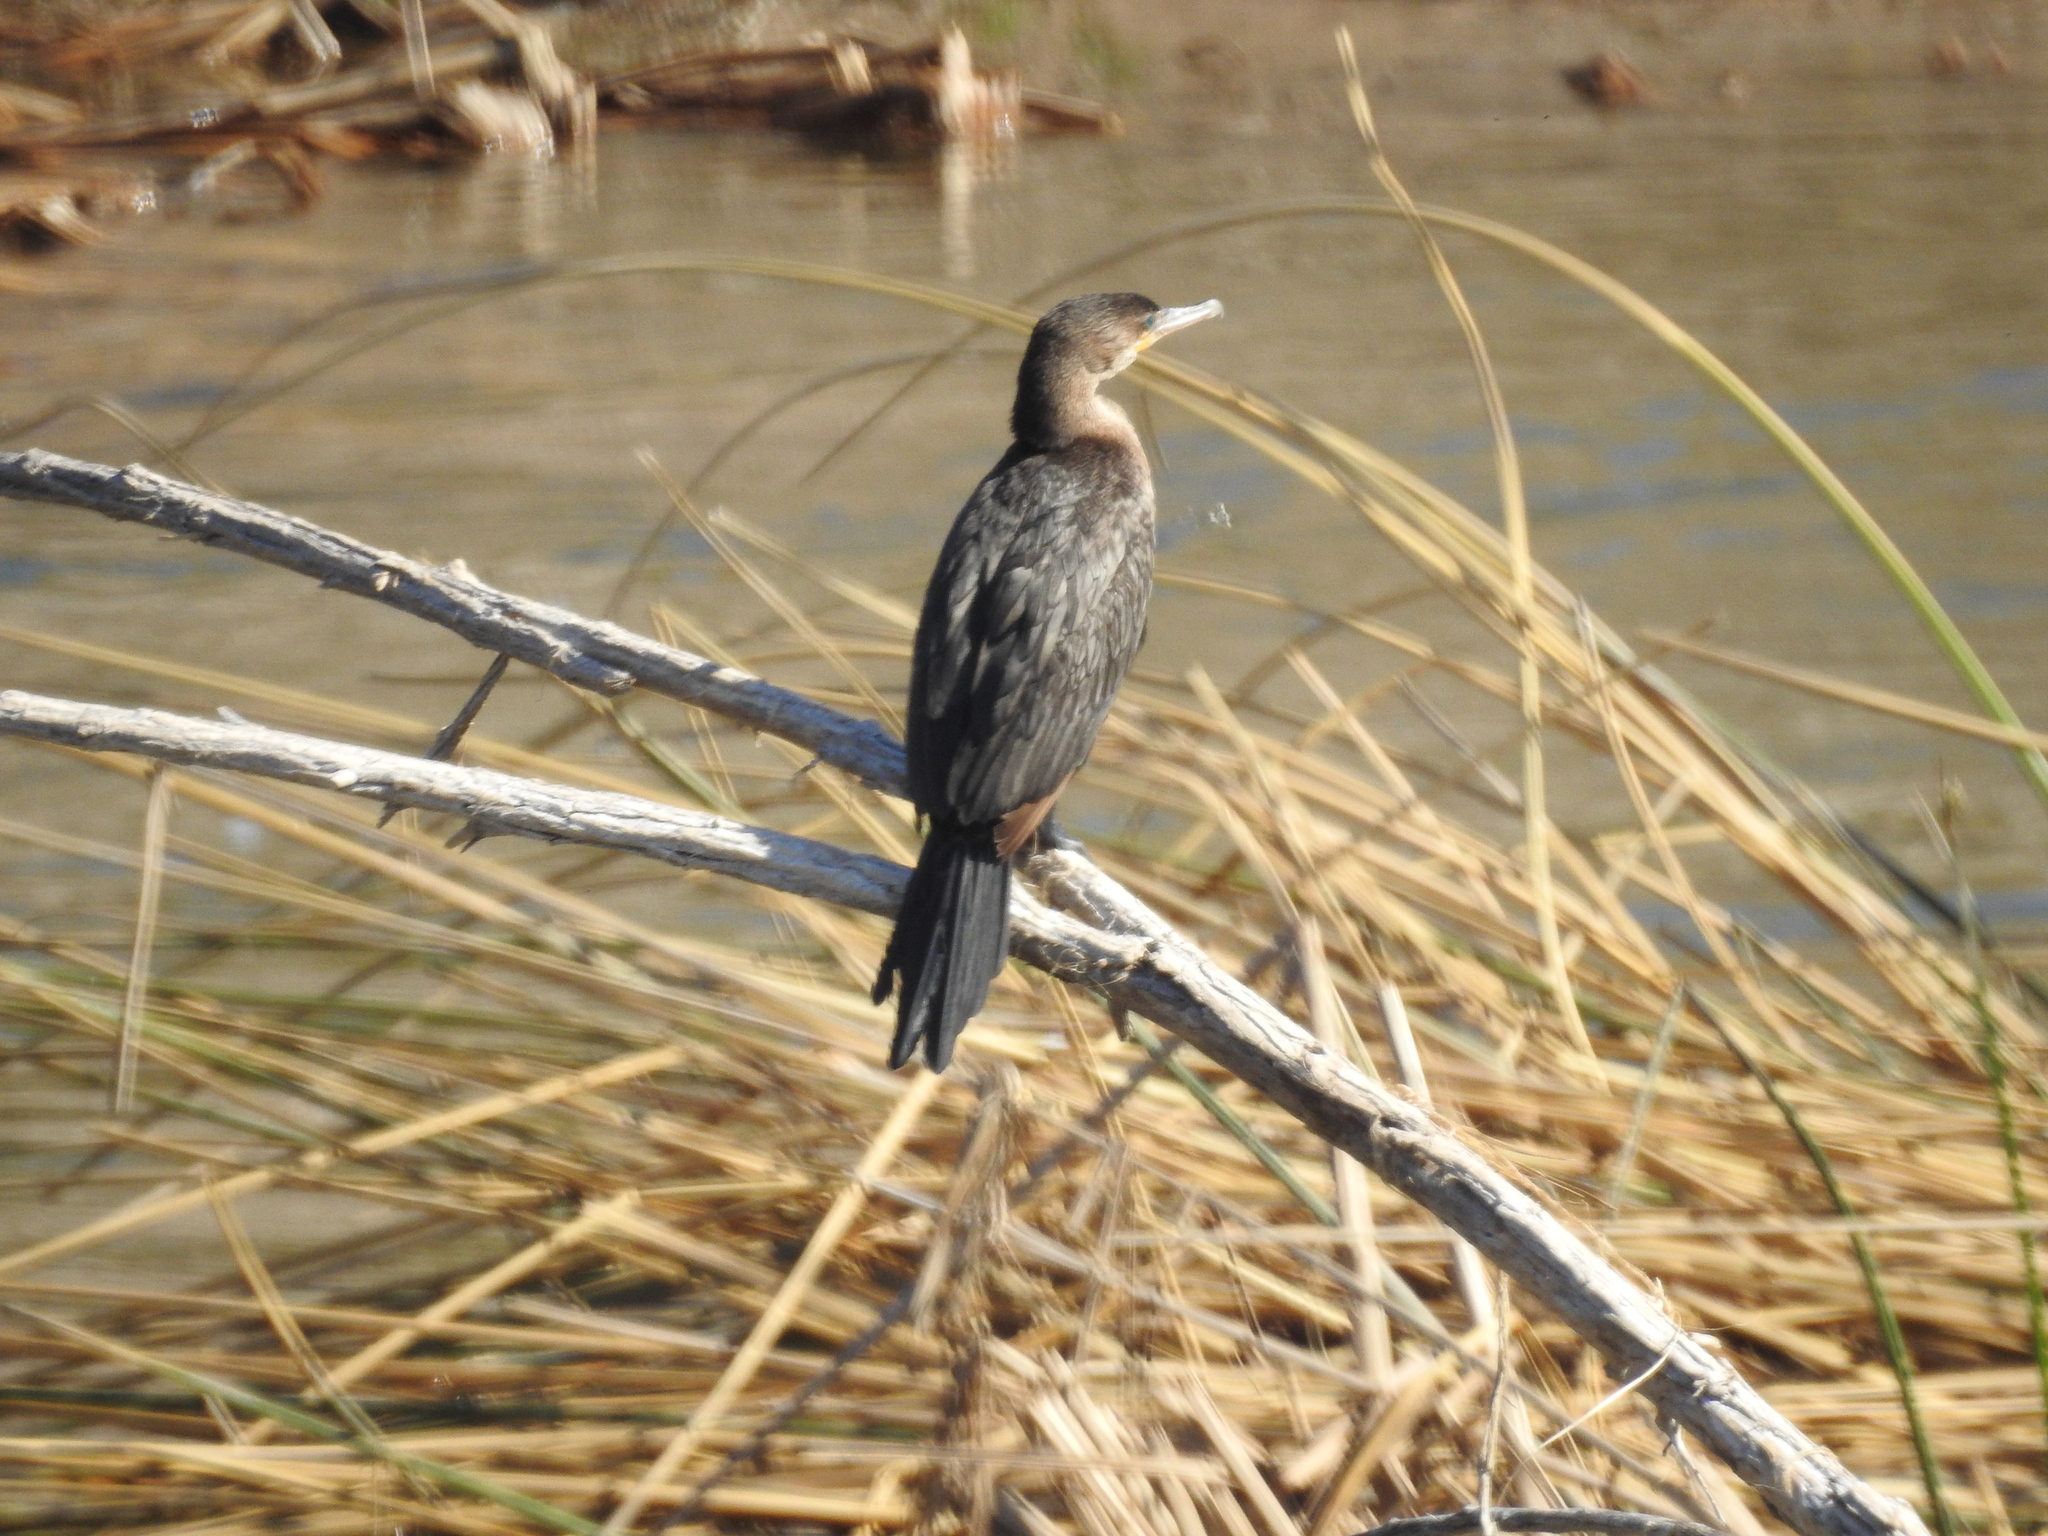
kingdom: Animalia
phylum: Chordata
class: Aves
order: Suliformes
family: Phalacrocoracidae
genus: Phalacrocorax
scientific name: Phalacrocorax brasilianus
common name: Neotropic cormorant
